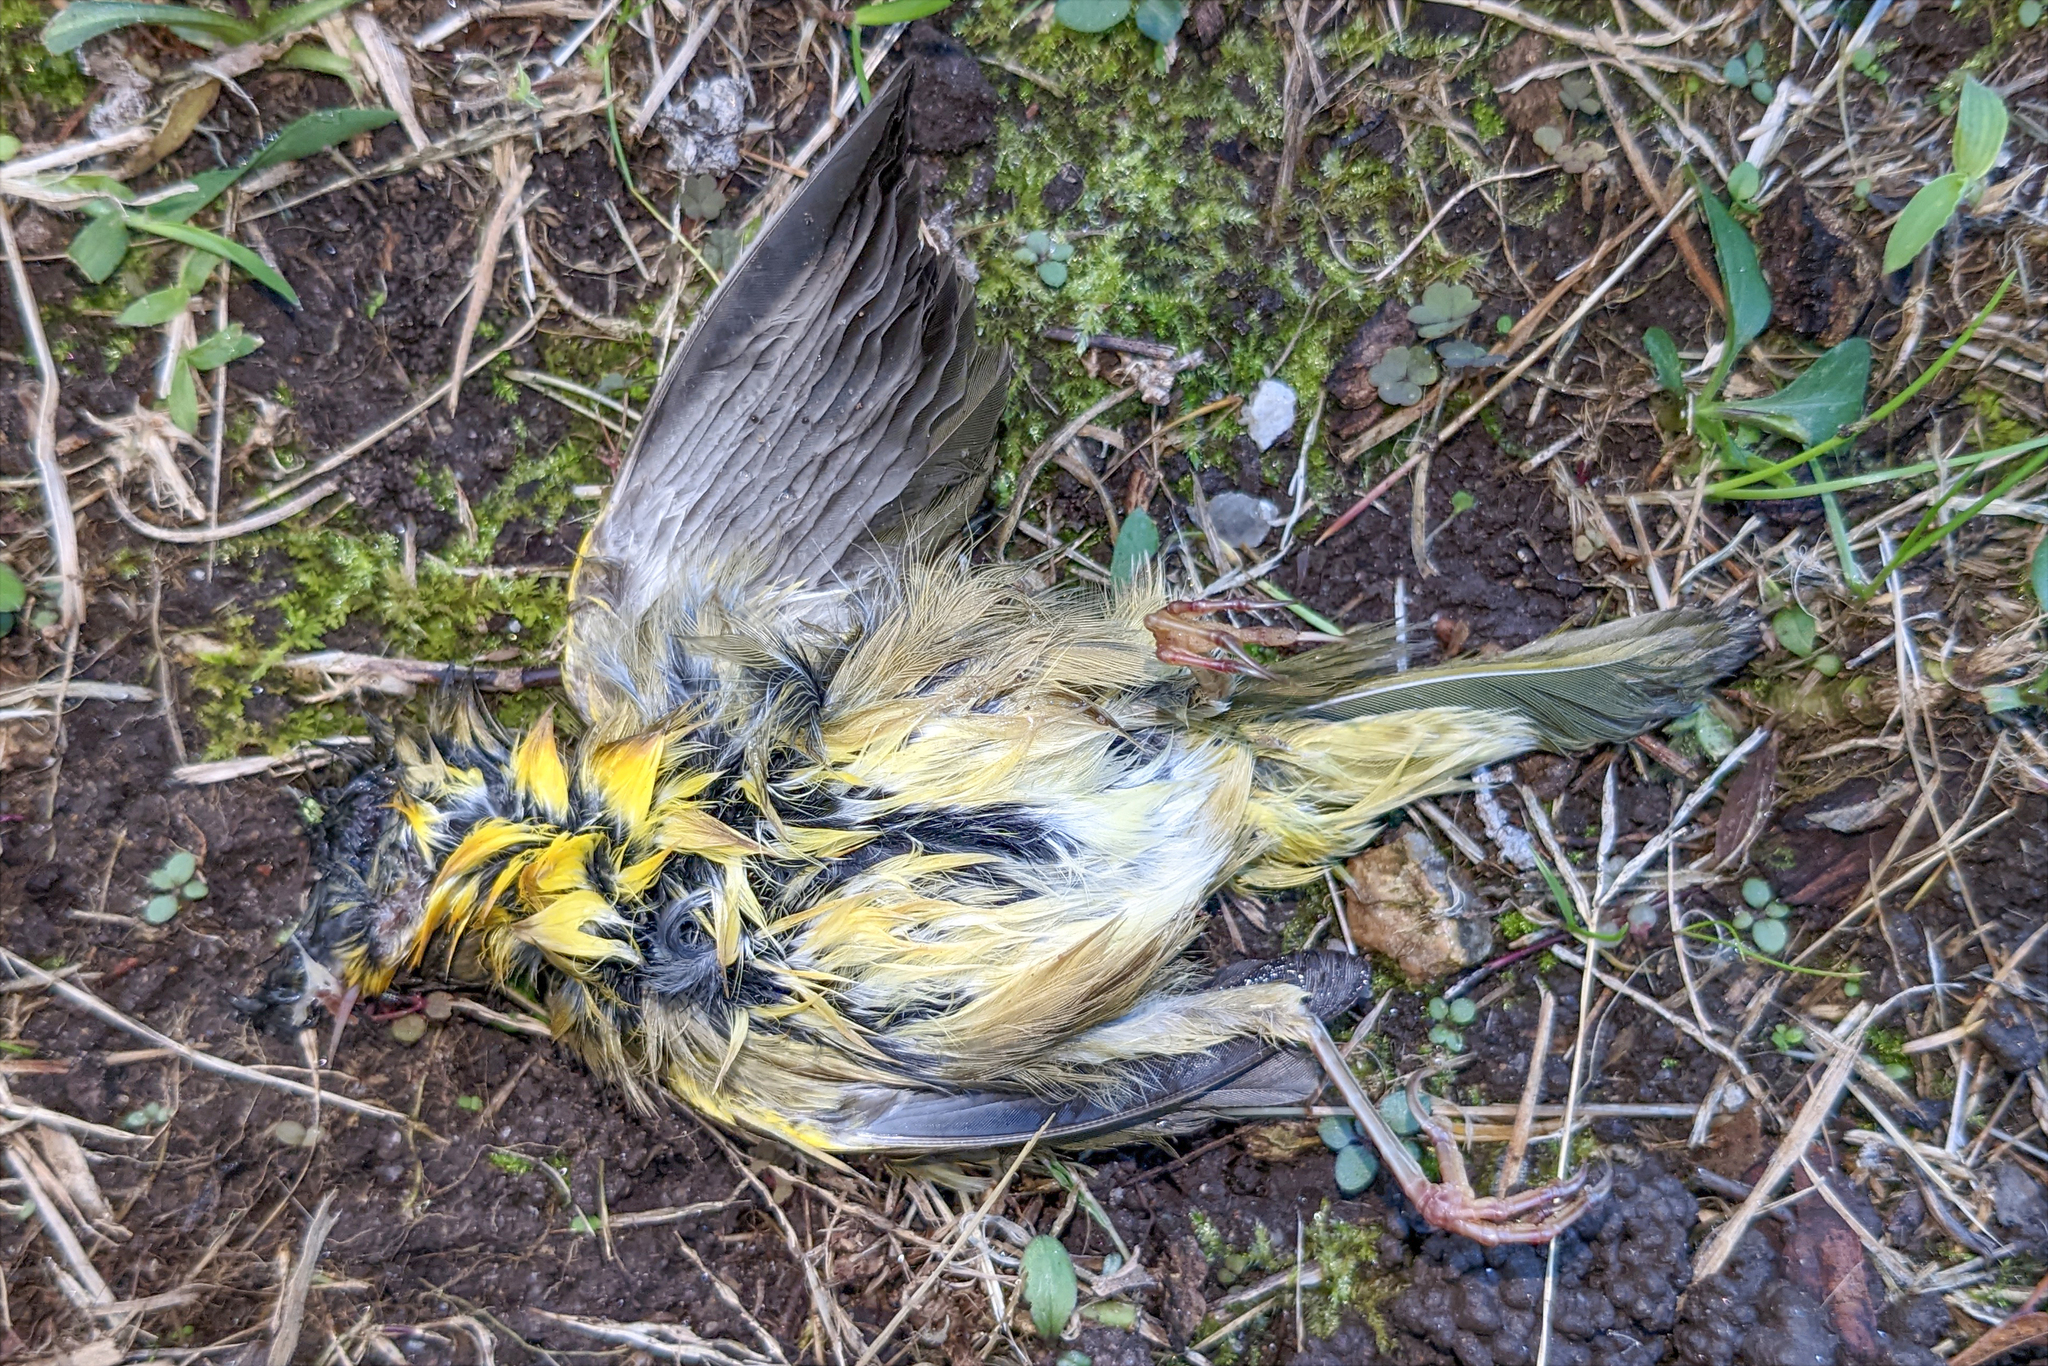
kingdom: Animalia
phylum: Chordata
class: Aves
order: Passeriformes
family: Parulidae
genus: Geothlypis
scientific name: Geothlypis trichas
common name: Common yellowthroat
